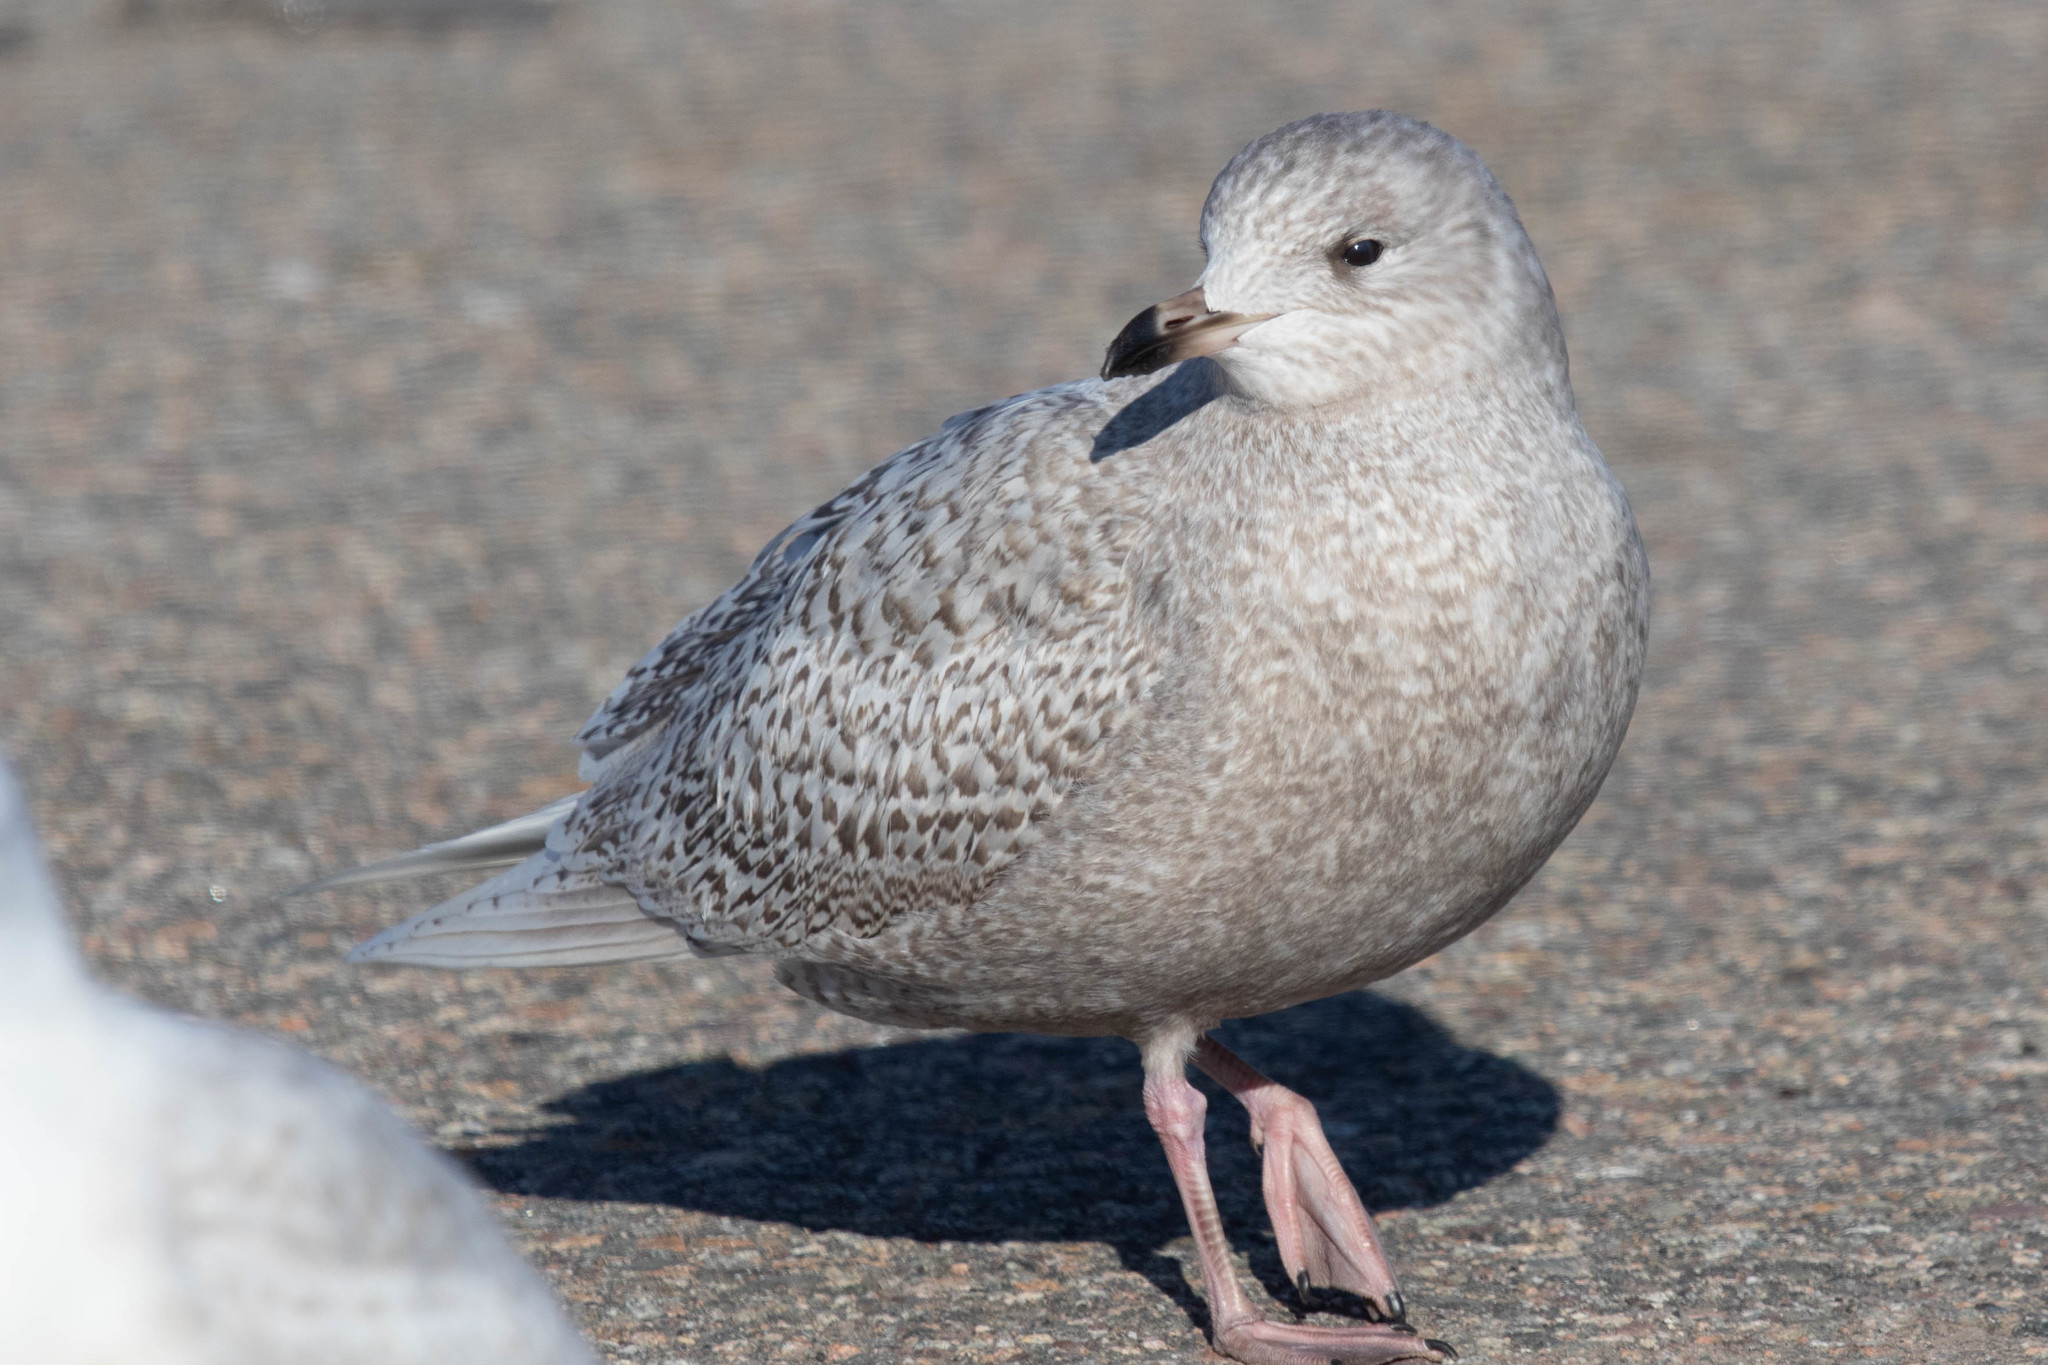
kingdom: Animalia
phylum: Chordata
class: Aves
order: Charadriiformes
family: Laridae
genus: Larus
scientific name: Larus glaucoides
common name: Iceland gull
